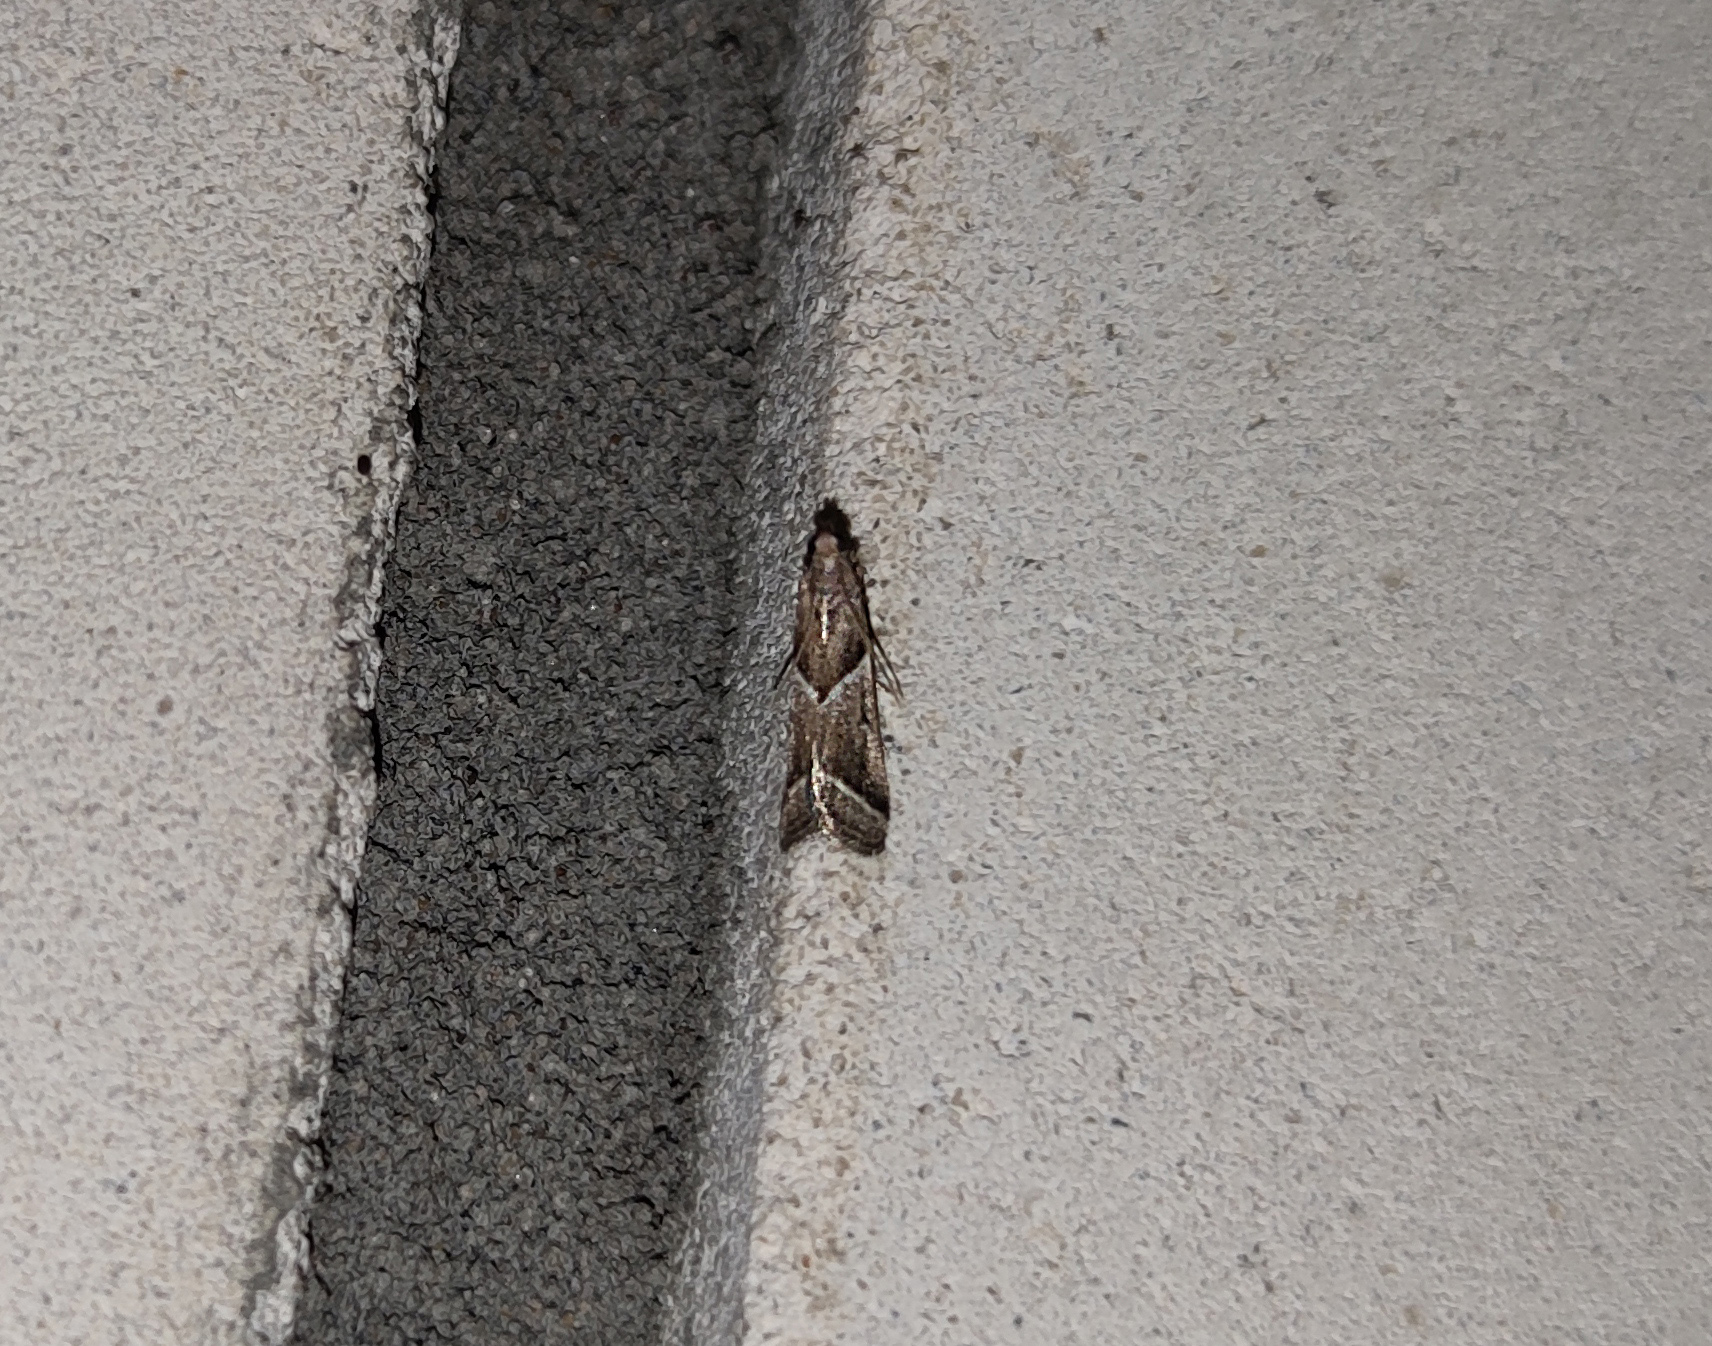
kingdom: Animalia
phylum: Arthropoda
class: Insecta
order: Lepidoptera
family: Pyralidae
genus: Nyctegretis
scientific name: Nyctegretis lineana
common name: Agate knot-horn
